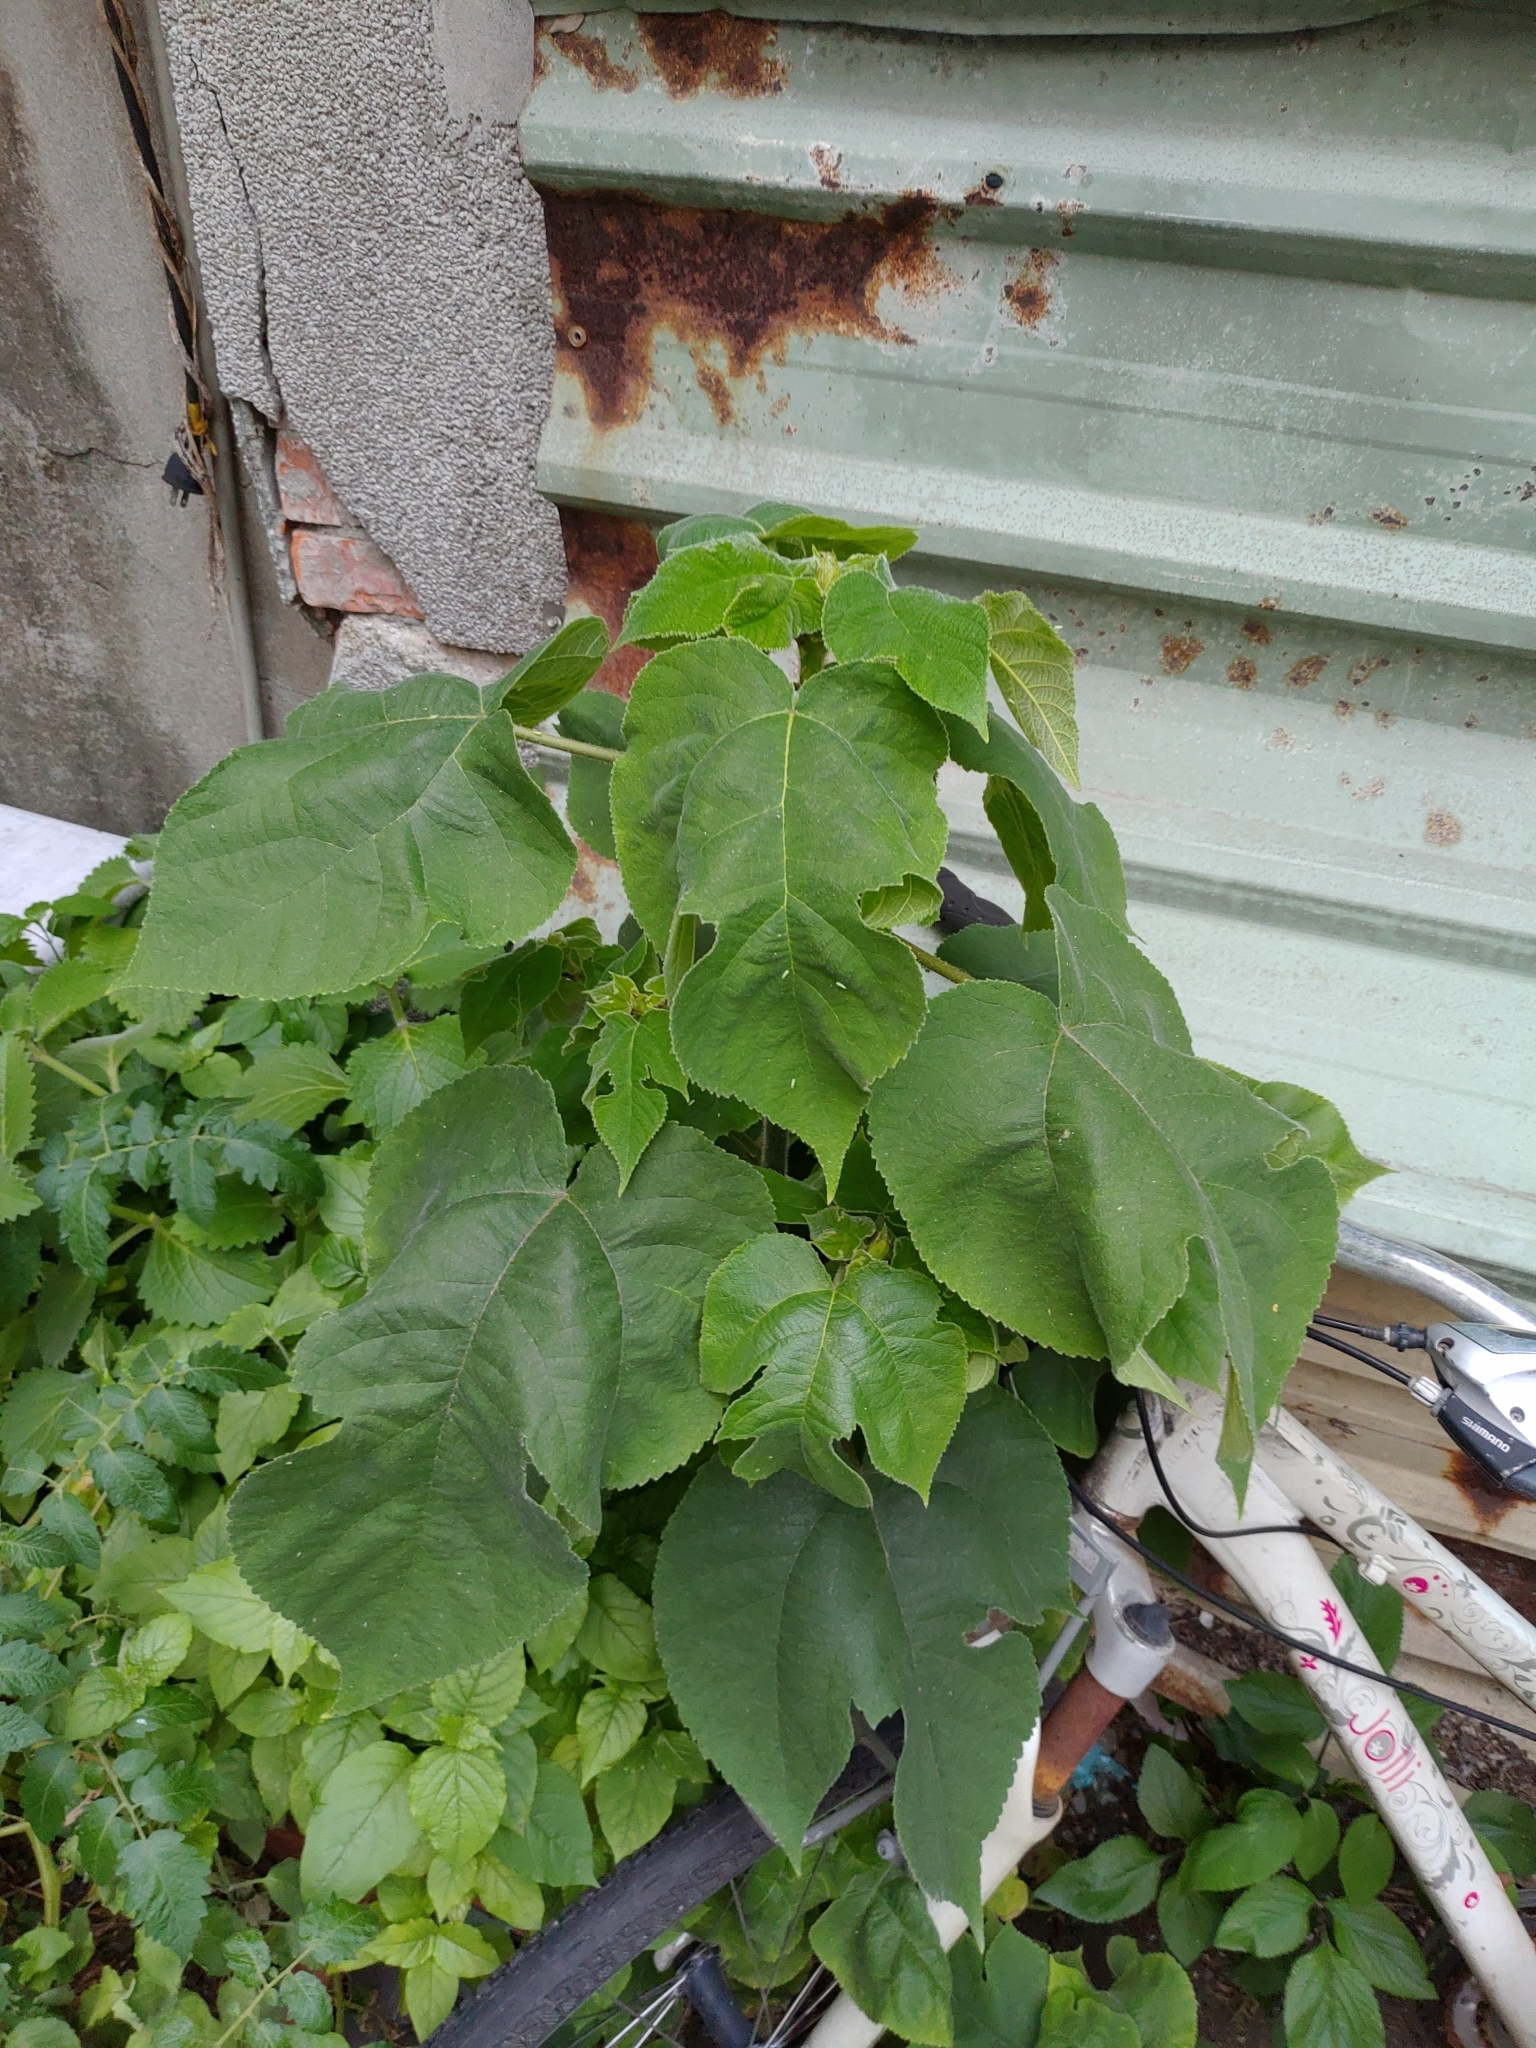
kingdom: Plantae
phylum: Tracheophyta
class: Magnoliopsida
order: Rosales
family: Moraceae
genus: Broussonetia
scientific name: Broussonetia papyrifera
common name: Paper mulberry
